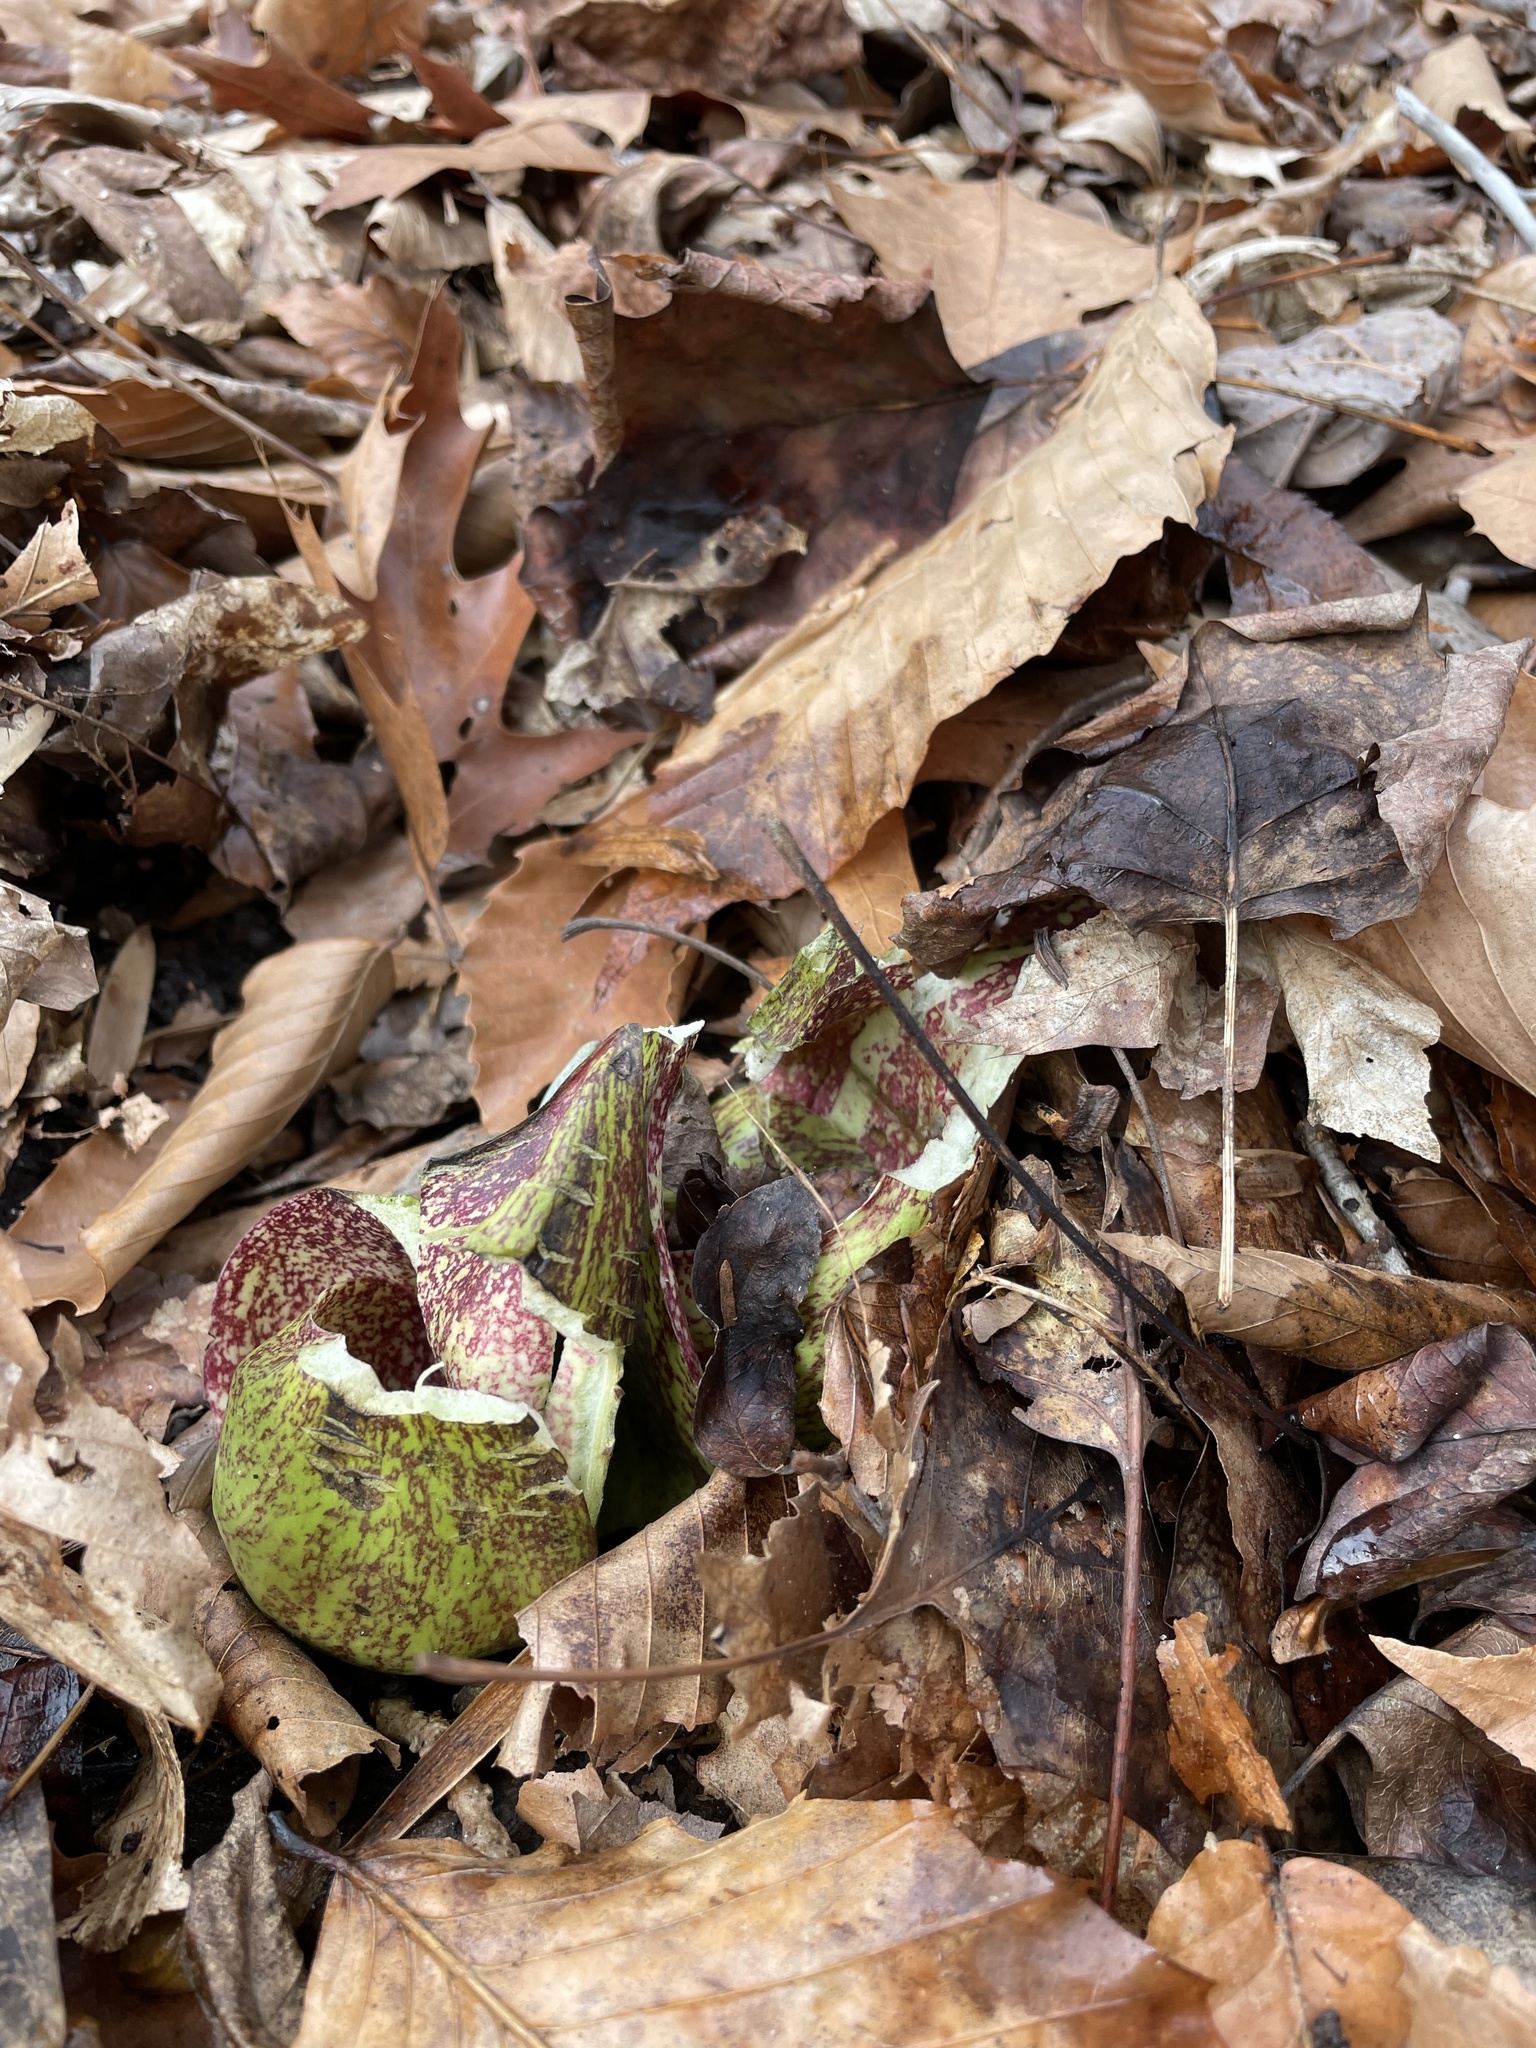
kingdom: Plantae
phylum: Tracheophyta
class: Liliopsida
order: Alismatales
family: Araceae
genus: Symplocarpus
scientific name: Symplocarpus foetidus
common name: Eastern skunk cabbage
